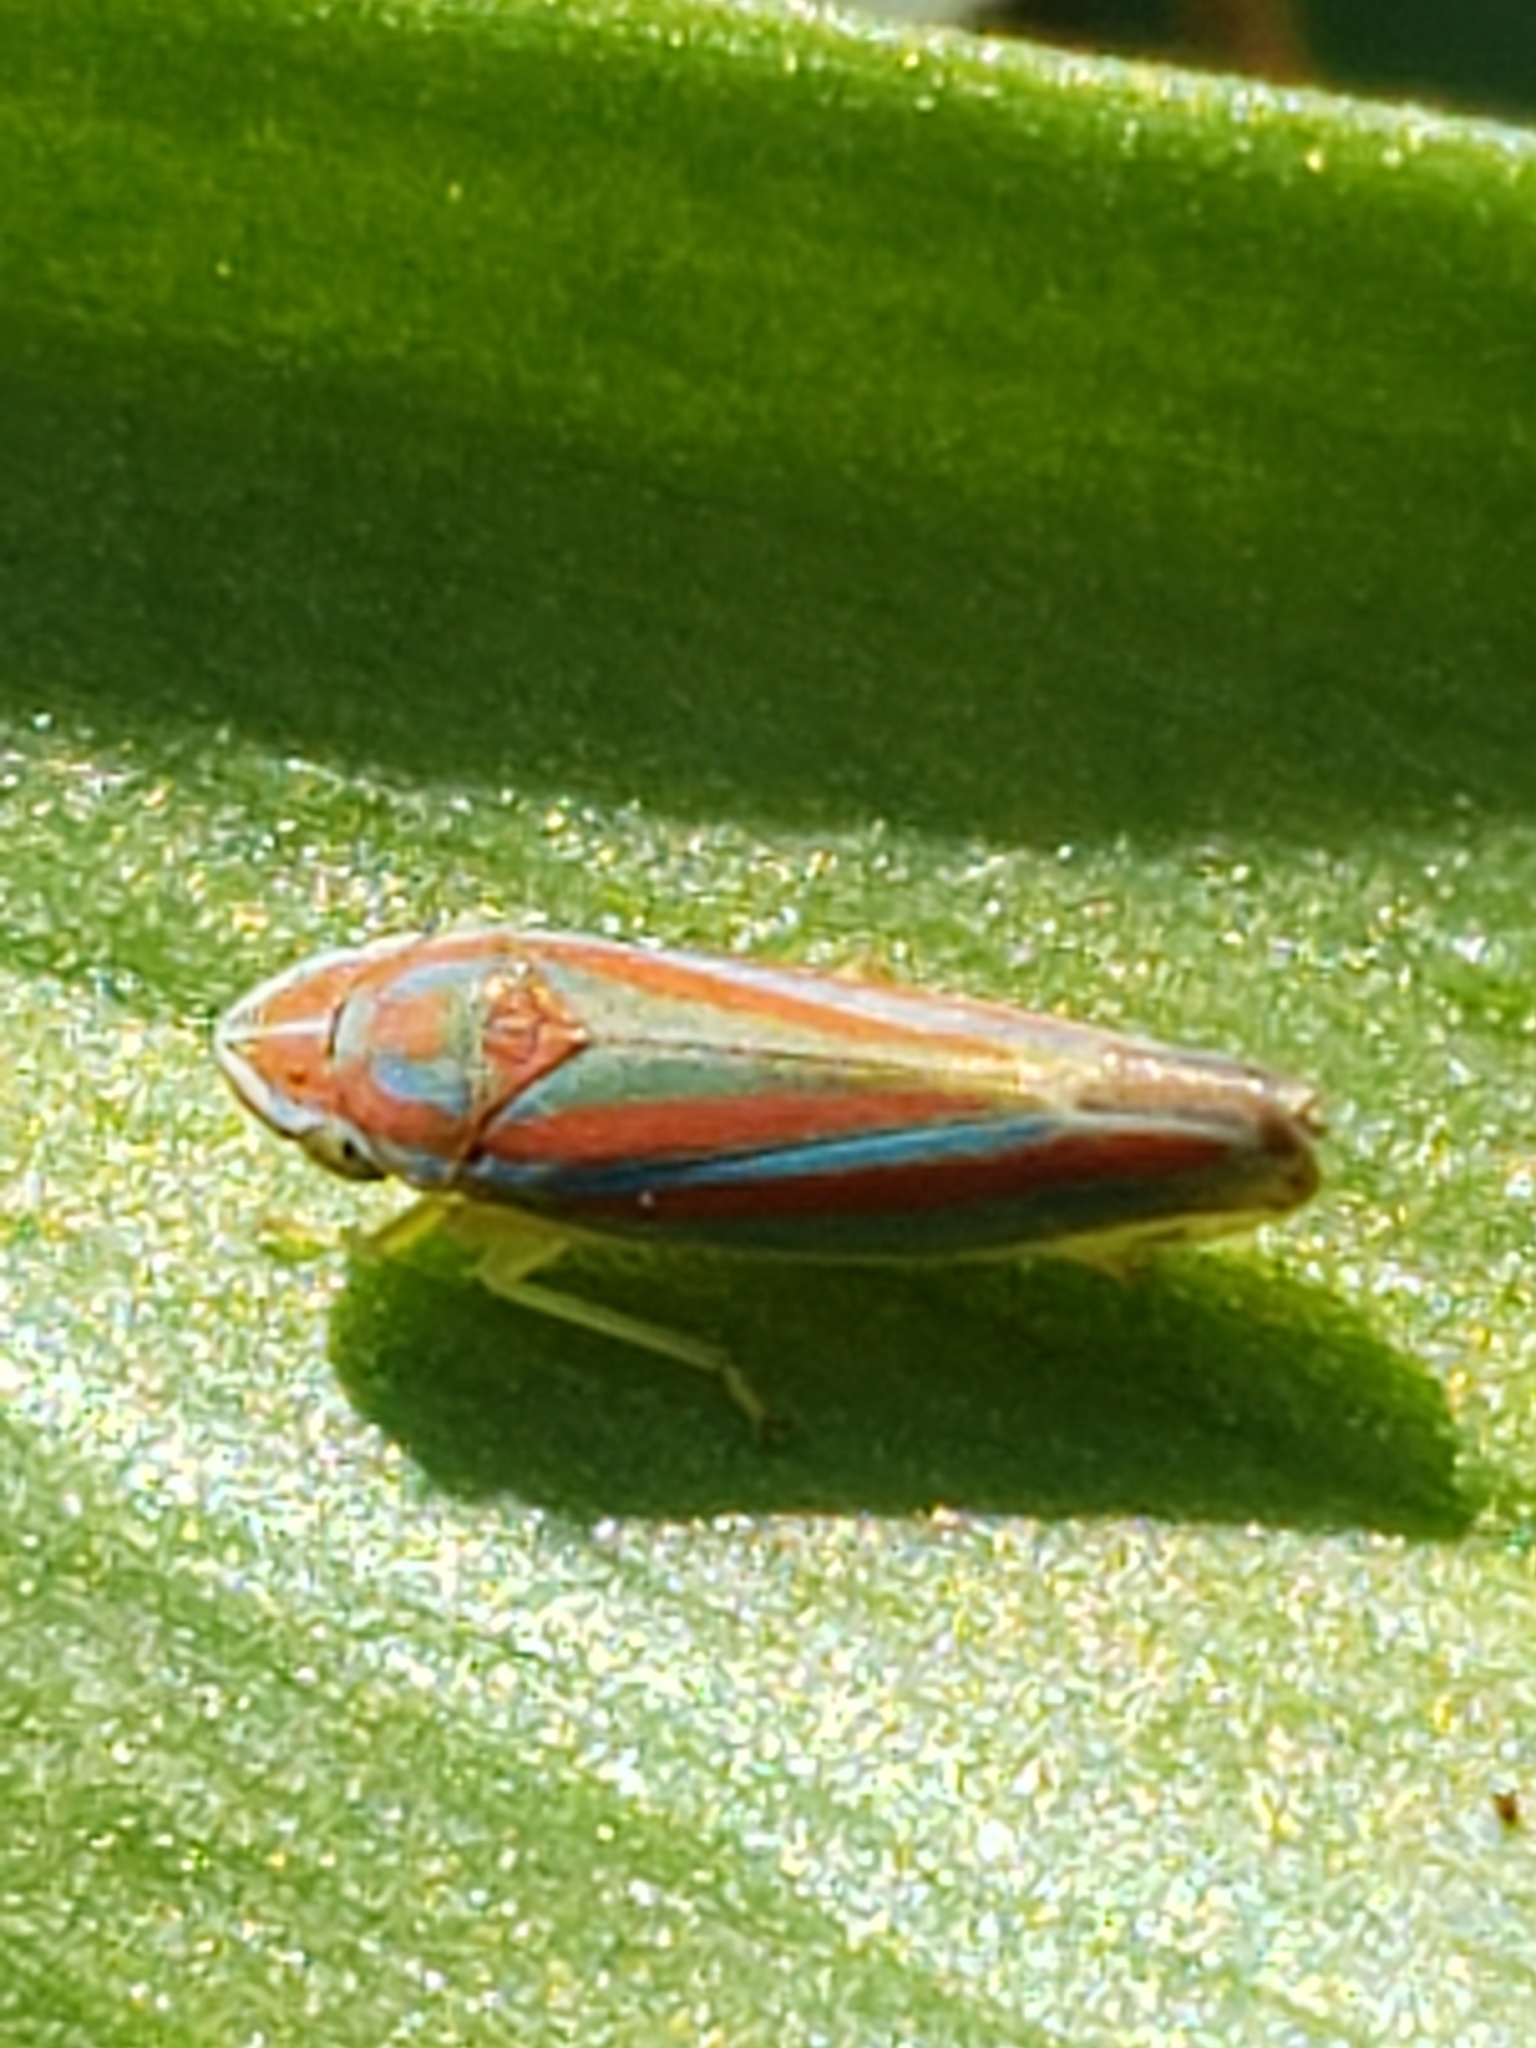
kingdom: Animalia
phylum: Arthropoda
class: Insecta
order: Hemiptera
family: Cicadellidae
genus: Graphocephala
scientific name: Graphocephala versuta
